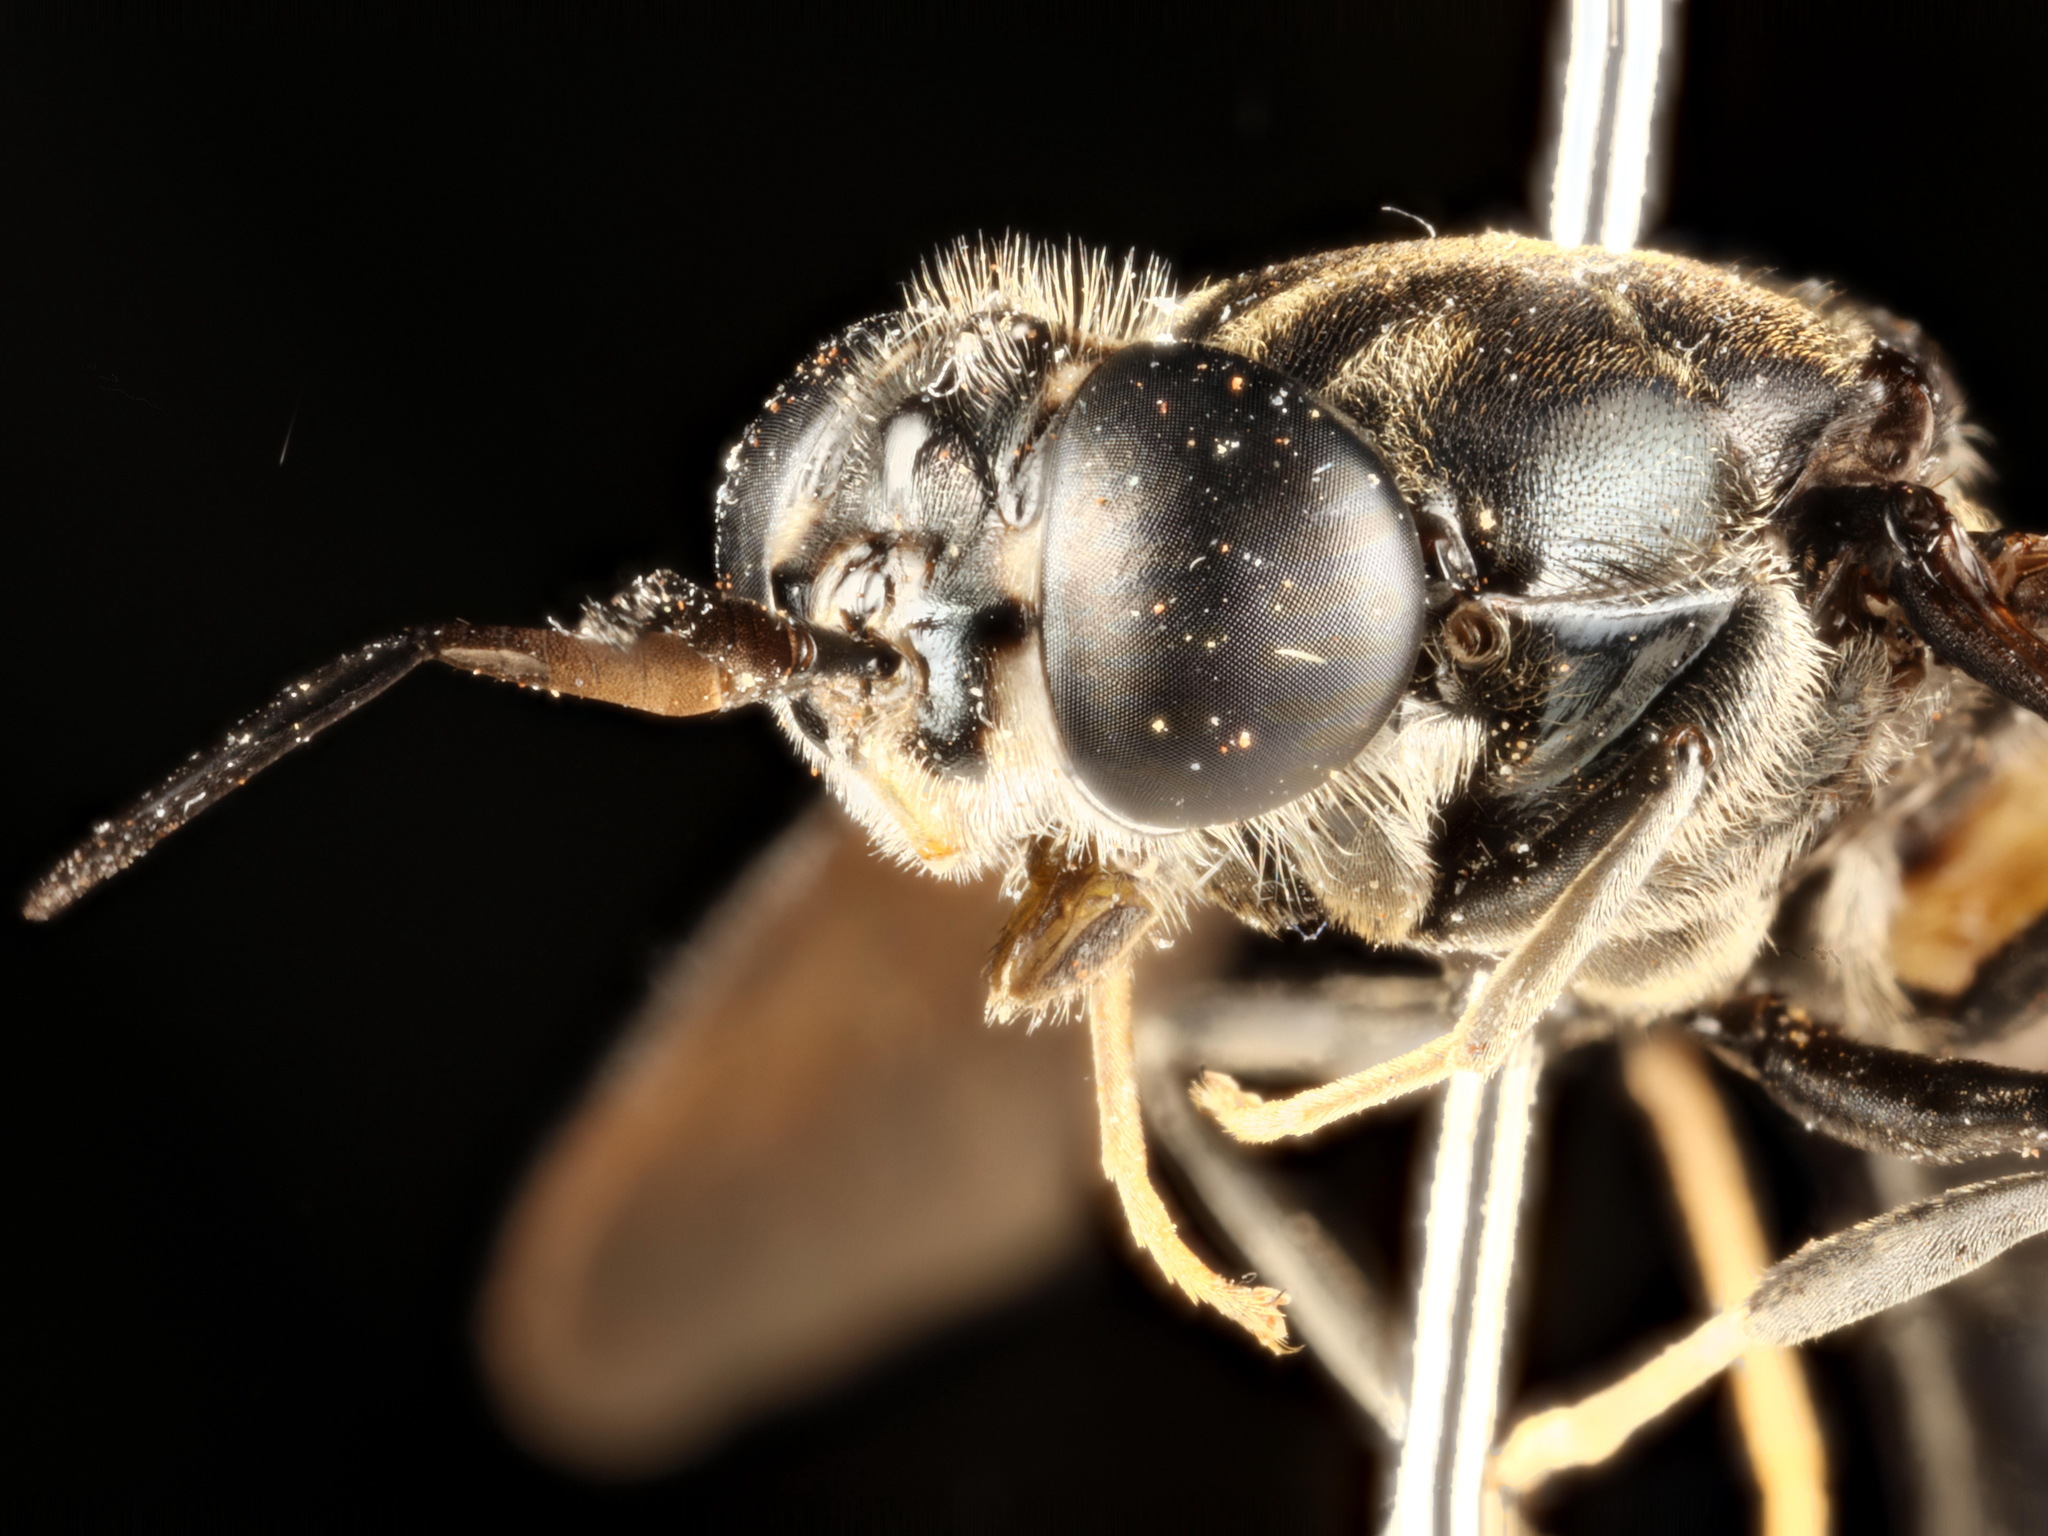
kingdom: Animalia
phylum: Arthropoda
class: Insecta
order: Diptera
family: Stratiomyidae
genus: Hermetia
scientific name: Hermetia illucens
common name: Black soldier fly
